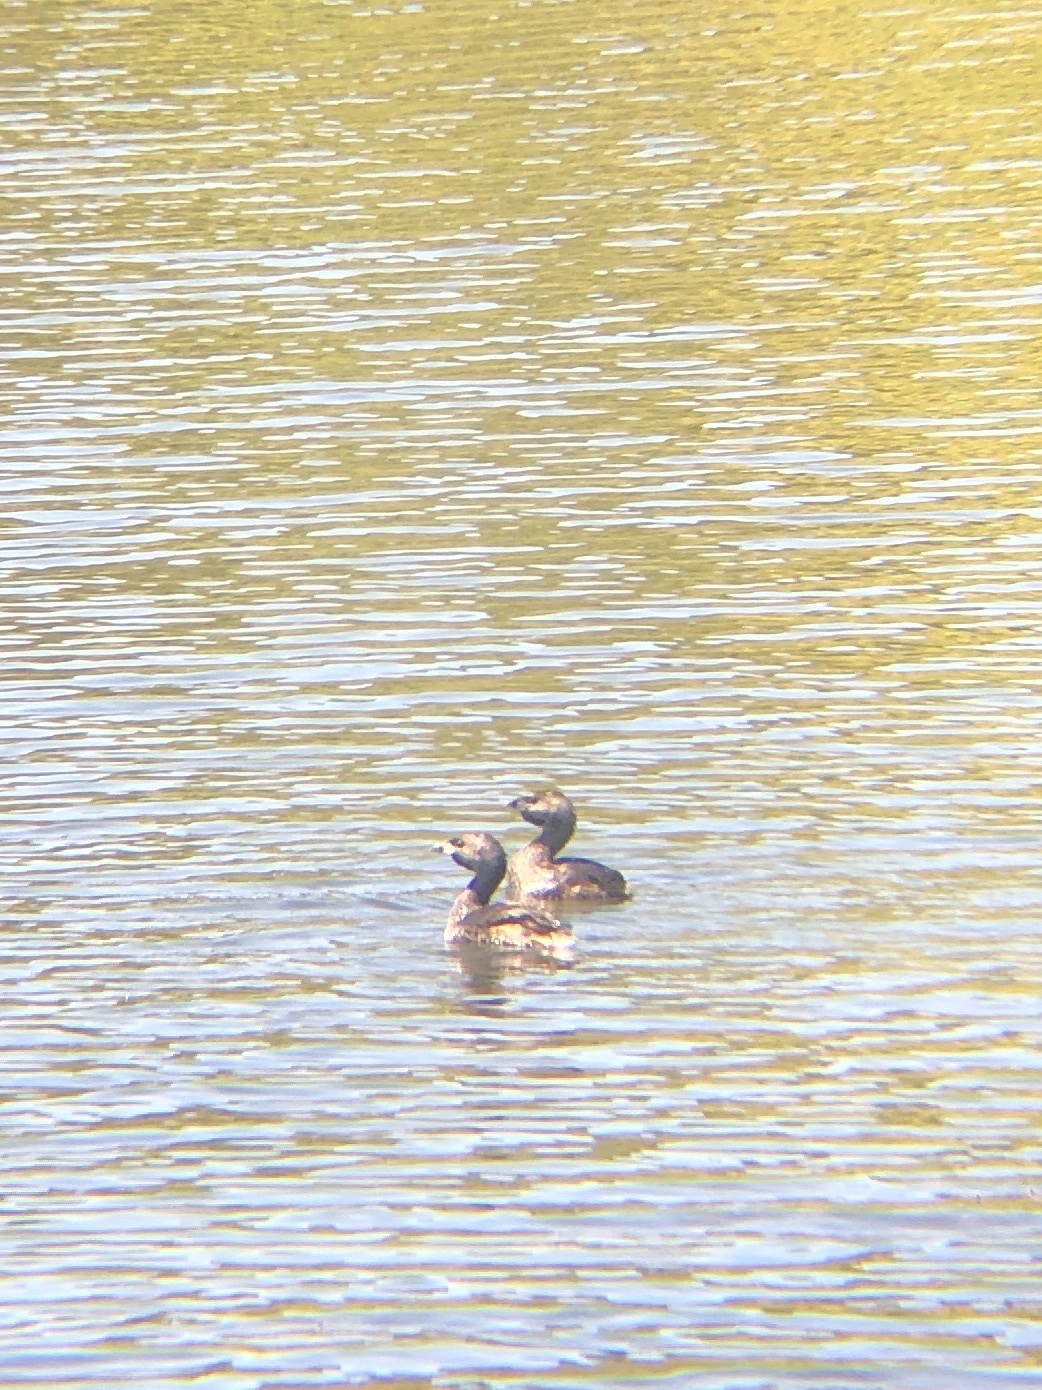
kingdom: Animalia
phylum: Chordata
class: Aves
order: Podicipediformes
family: Podicipedidae
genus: Podilymbus
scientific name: Podilymbus podiceps
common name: Pied-billed grebe
